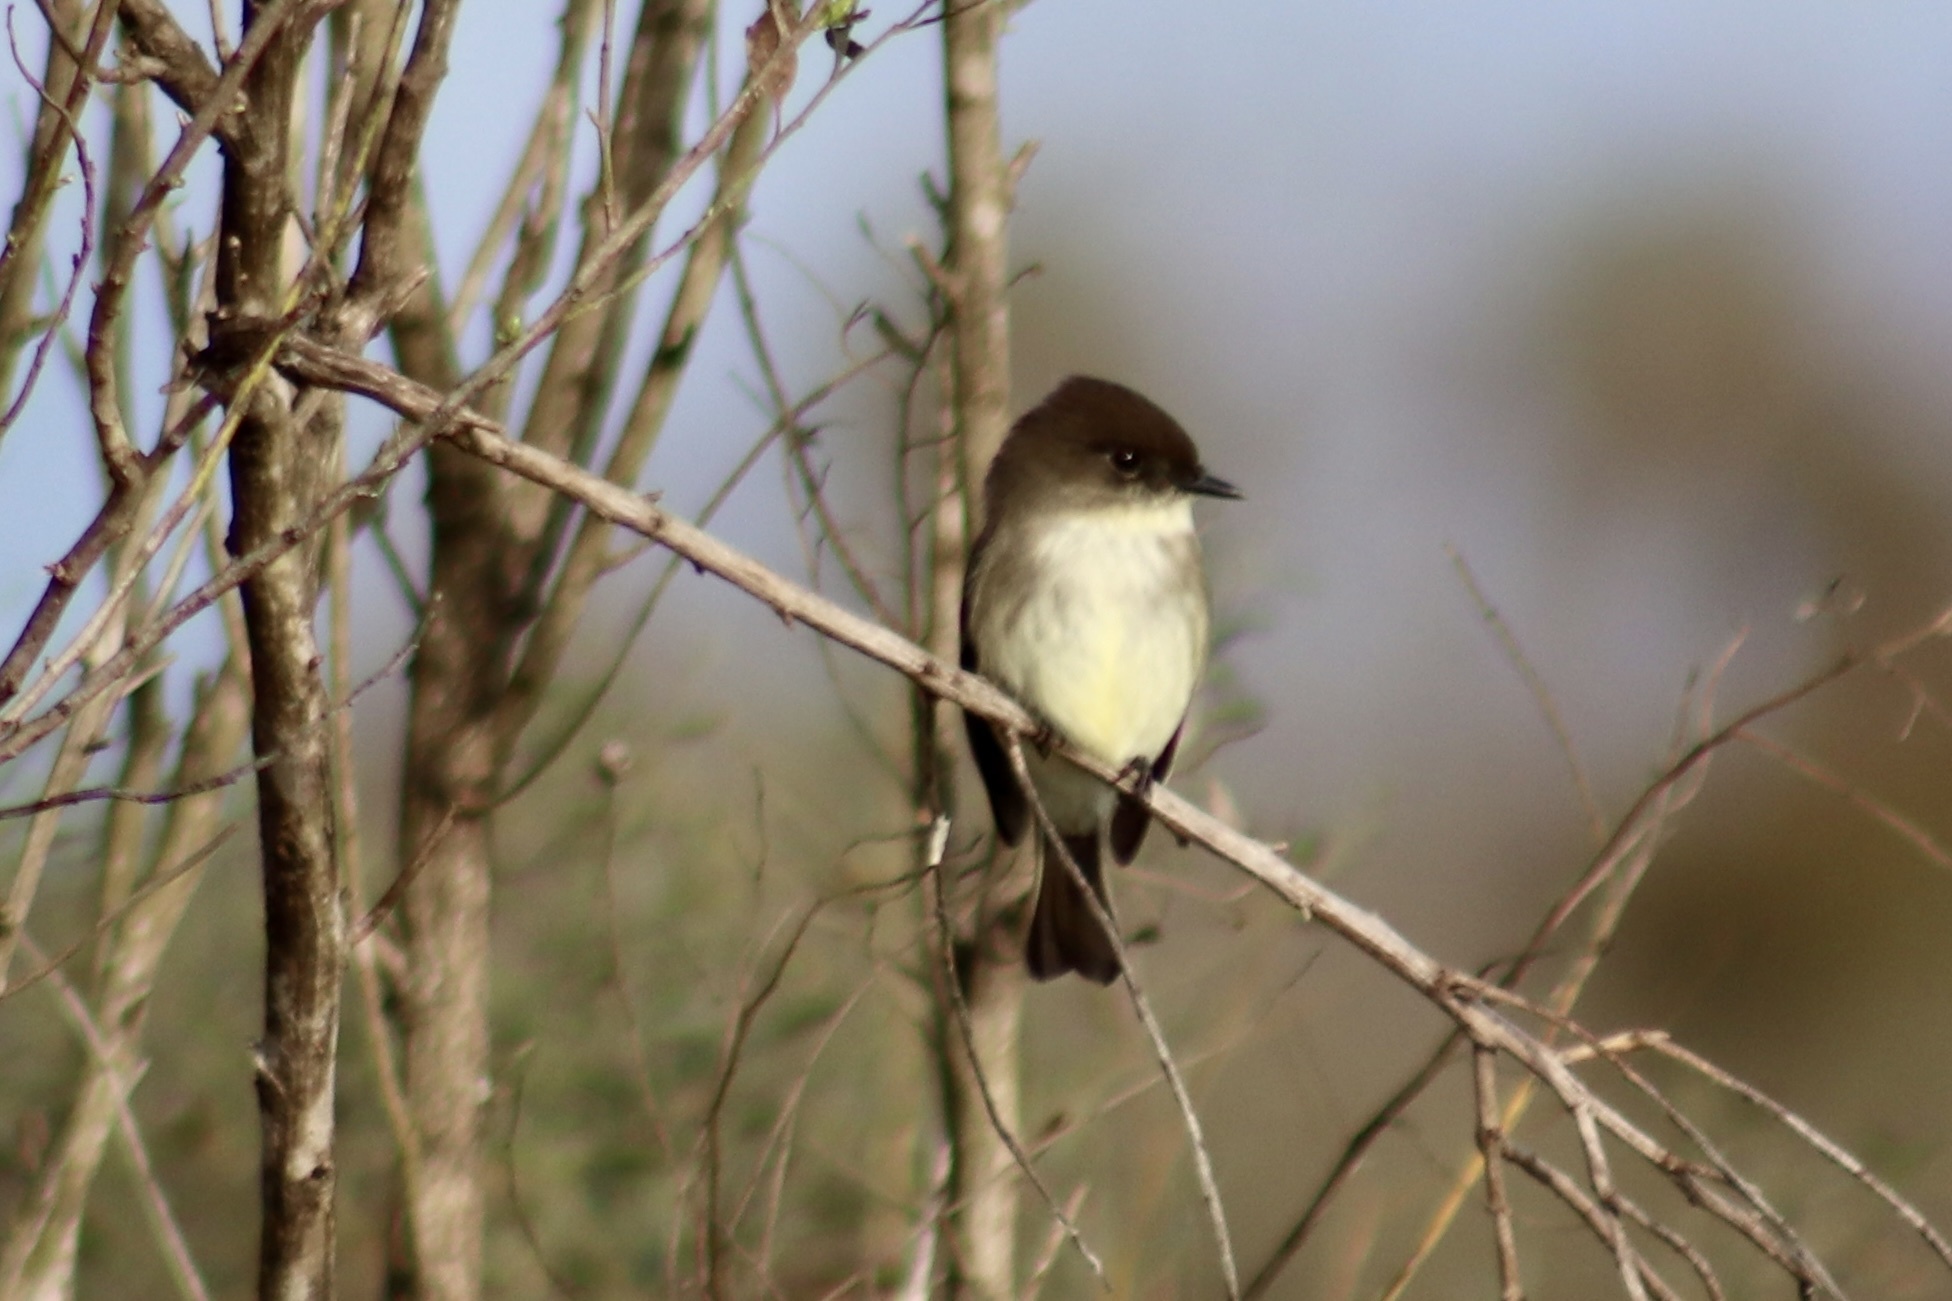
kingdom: Animalia
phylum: Chordata
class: Aves
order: Passeriformes
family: Tyrannidae
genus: Sayornis
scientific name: Sayornis phoebe
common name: Eastern phoebe
